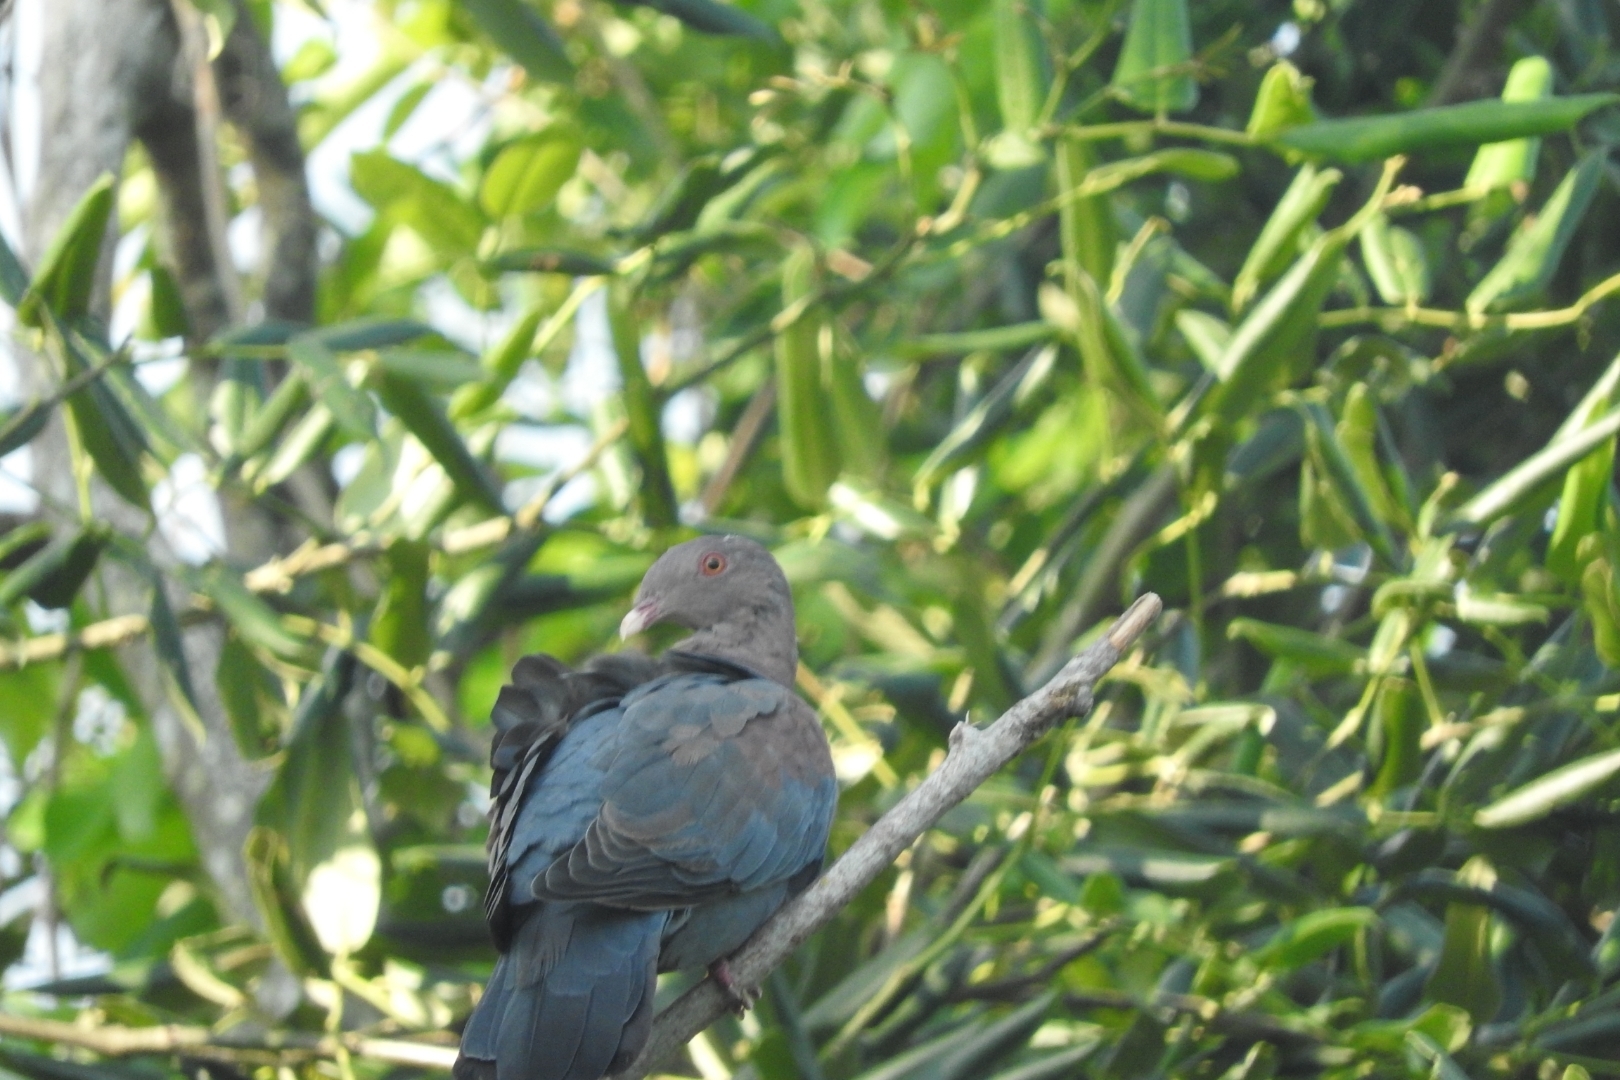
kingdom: Animalia
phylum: Chordata
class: Aves
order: Columbiformes
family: Columbidae
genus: Patagioenas
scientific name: Patagioenas flavirostris
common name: Red-billed pigeon
